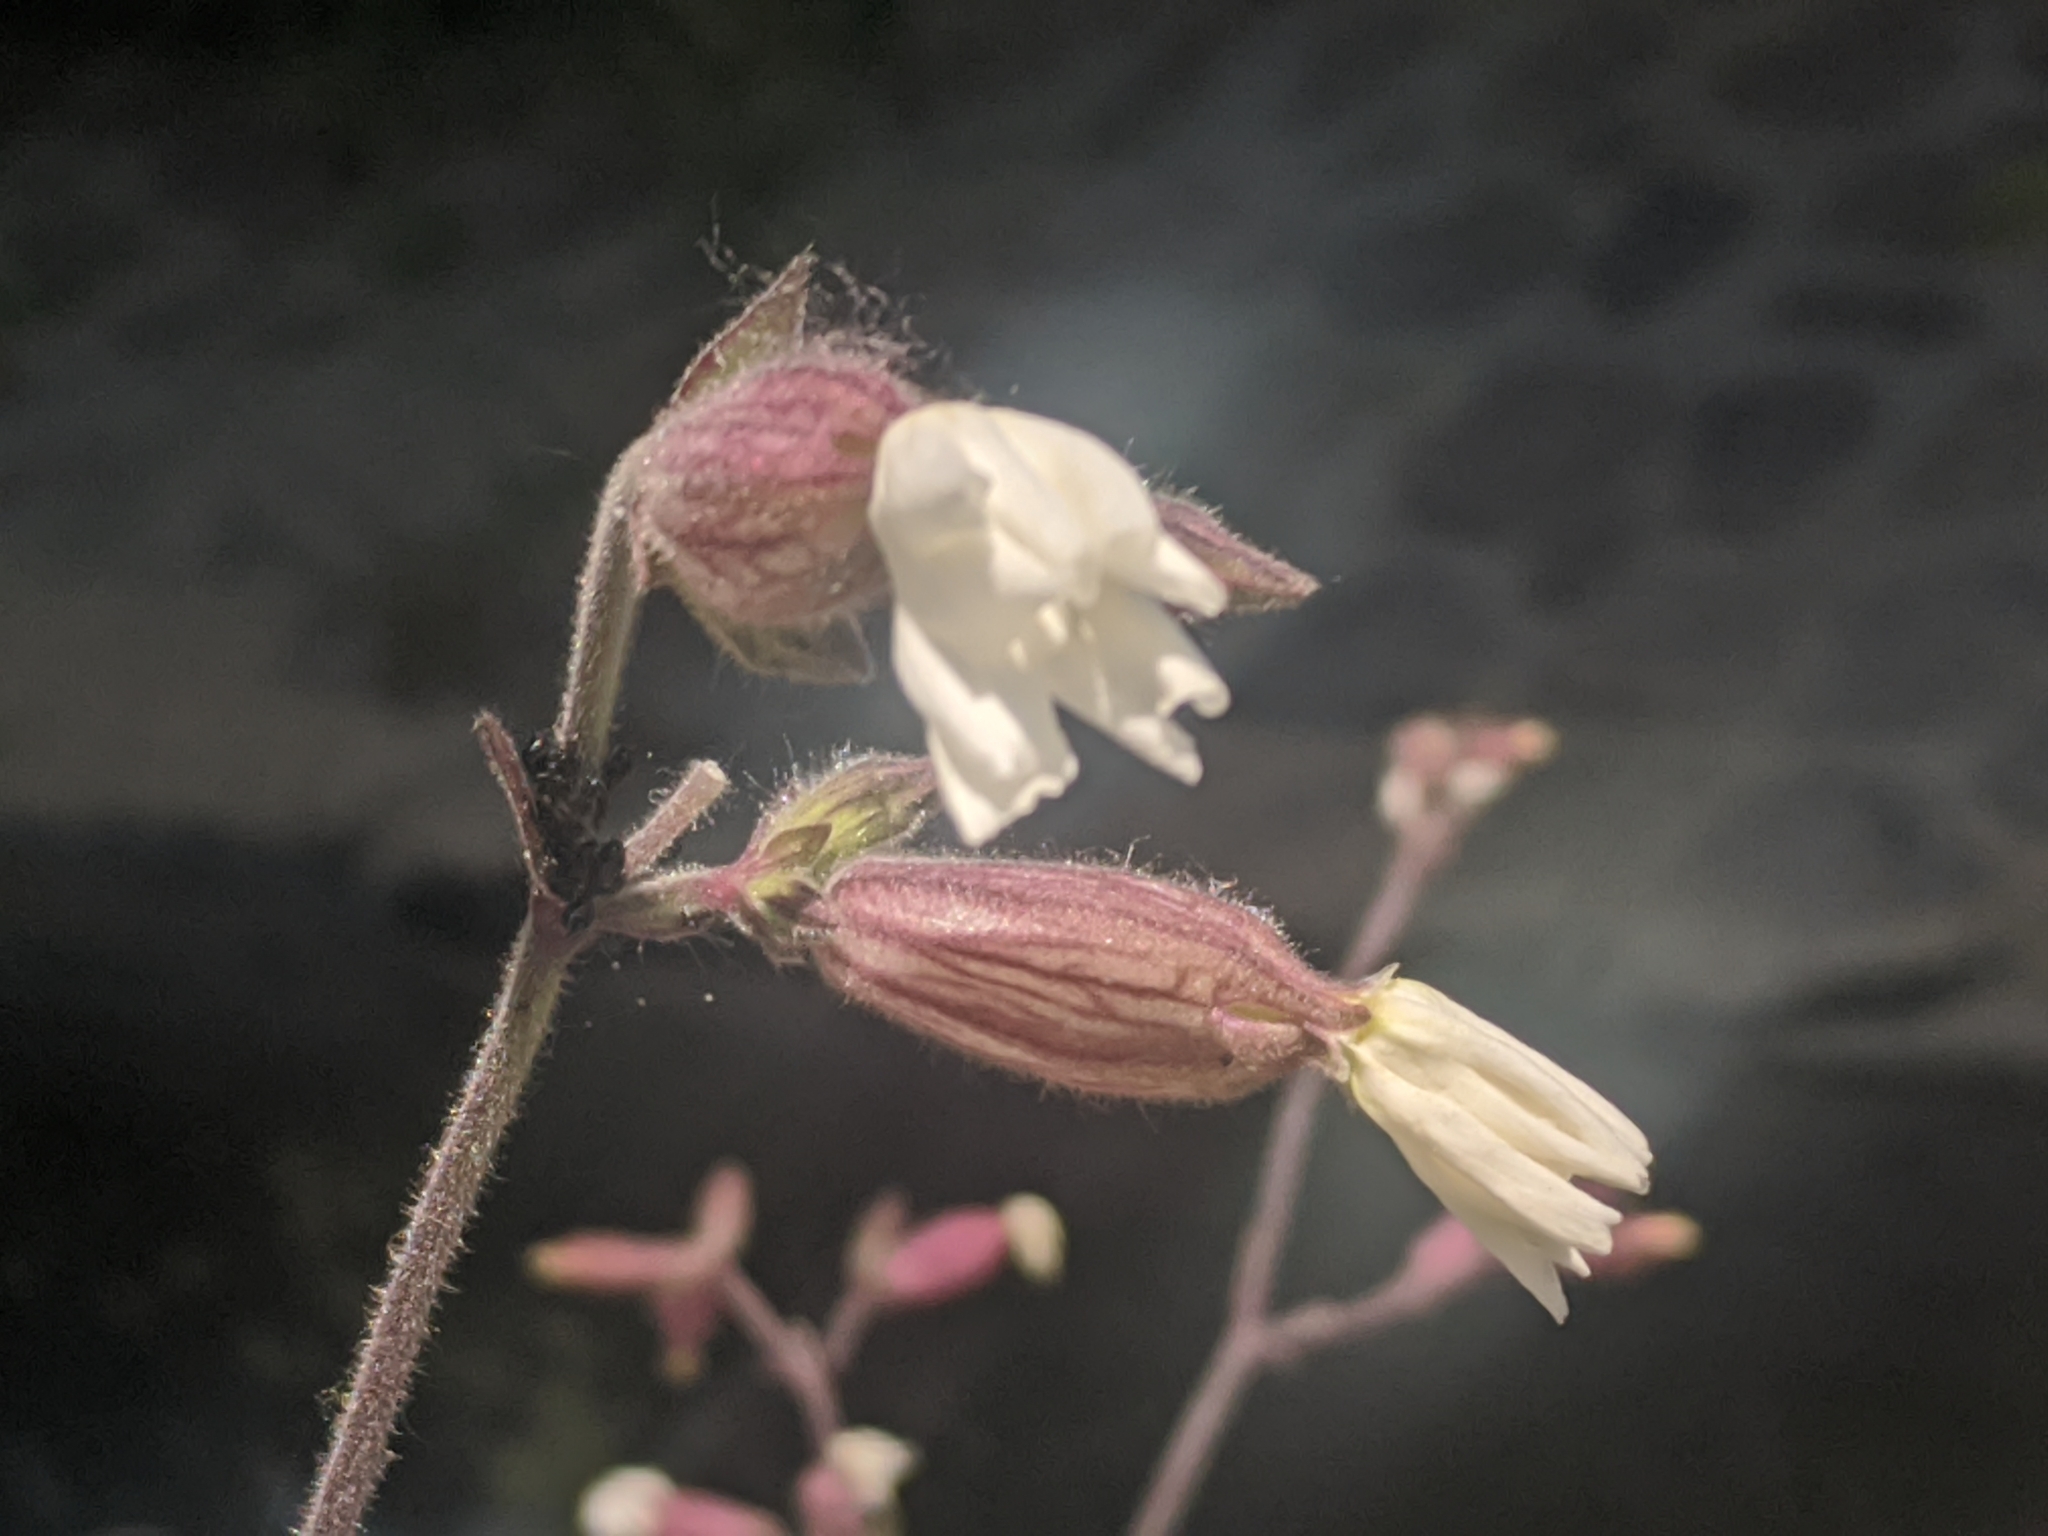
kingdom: Plantae
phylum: Tracheophyta
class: Magnoliopsida
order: Caryophyllales
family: Caryophyllaceae
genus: Silene
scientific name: Silene latifolia
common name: White campion
